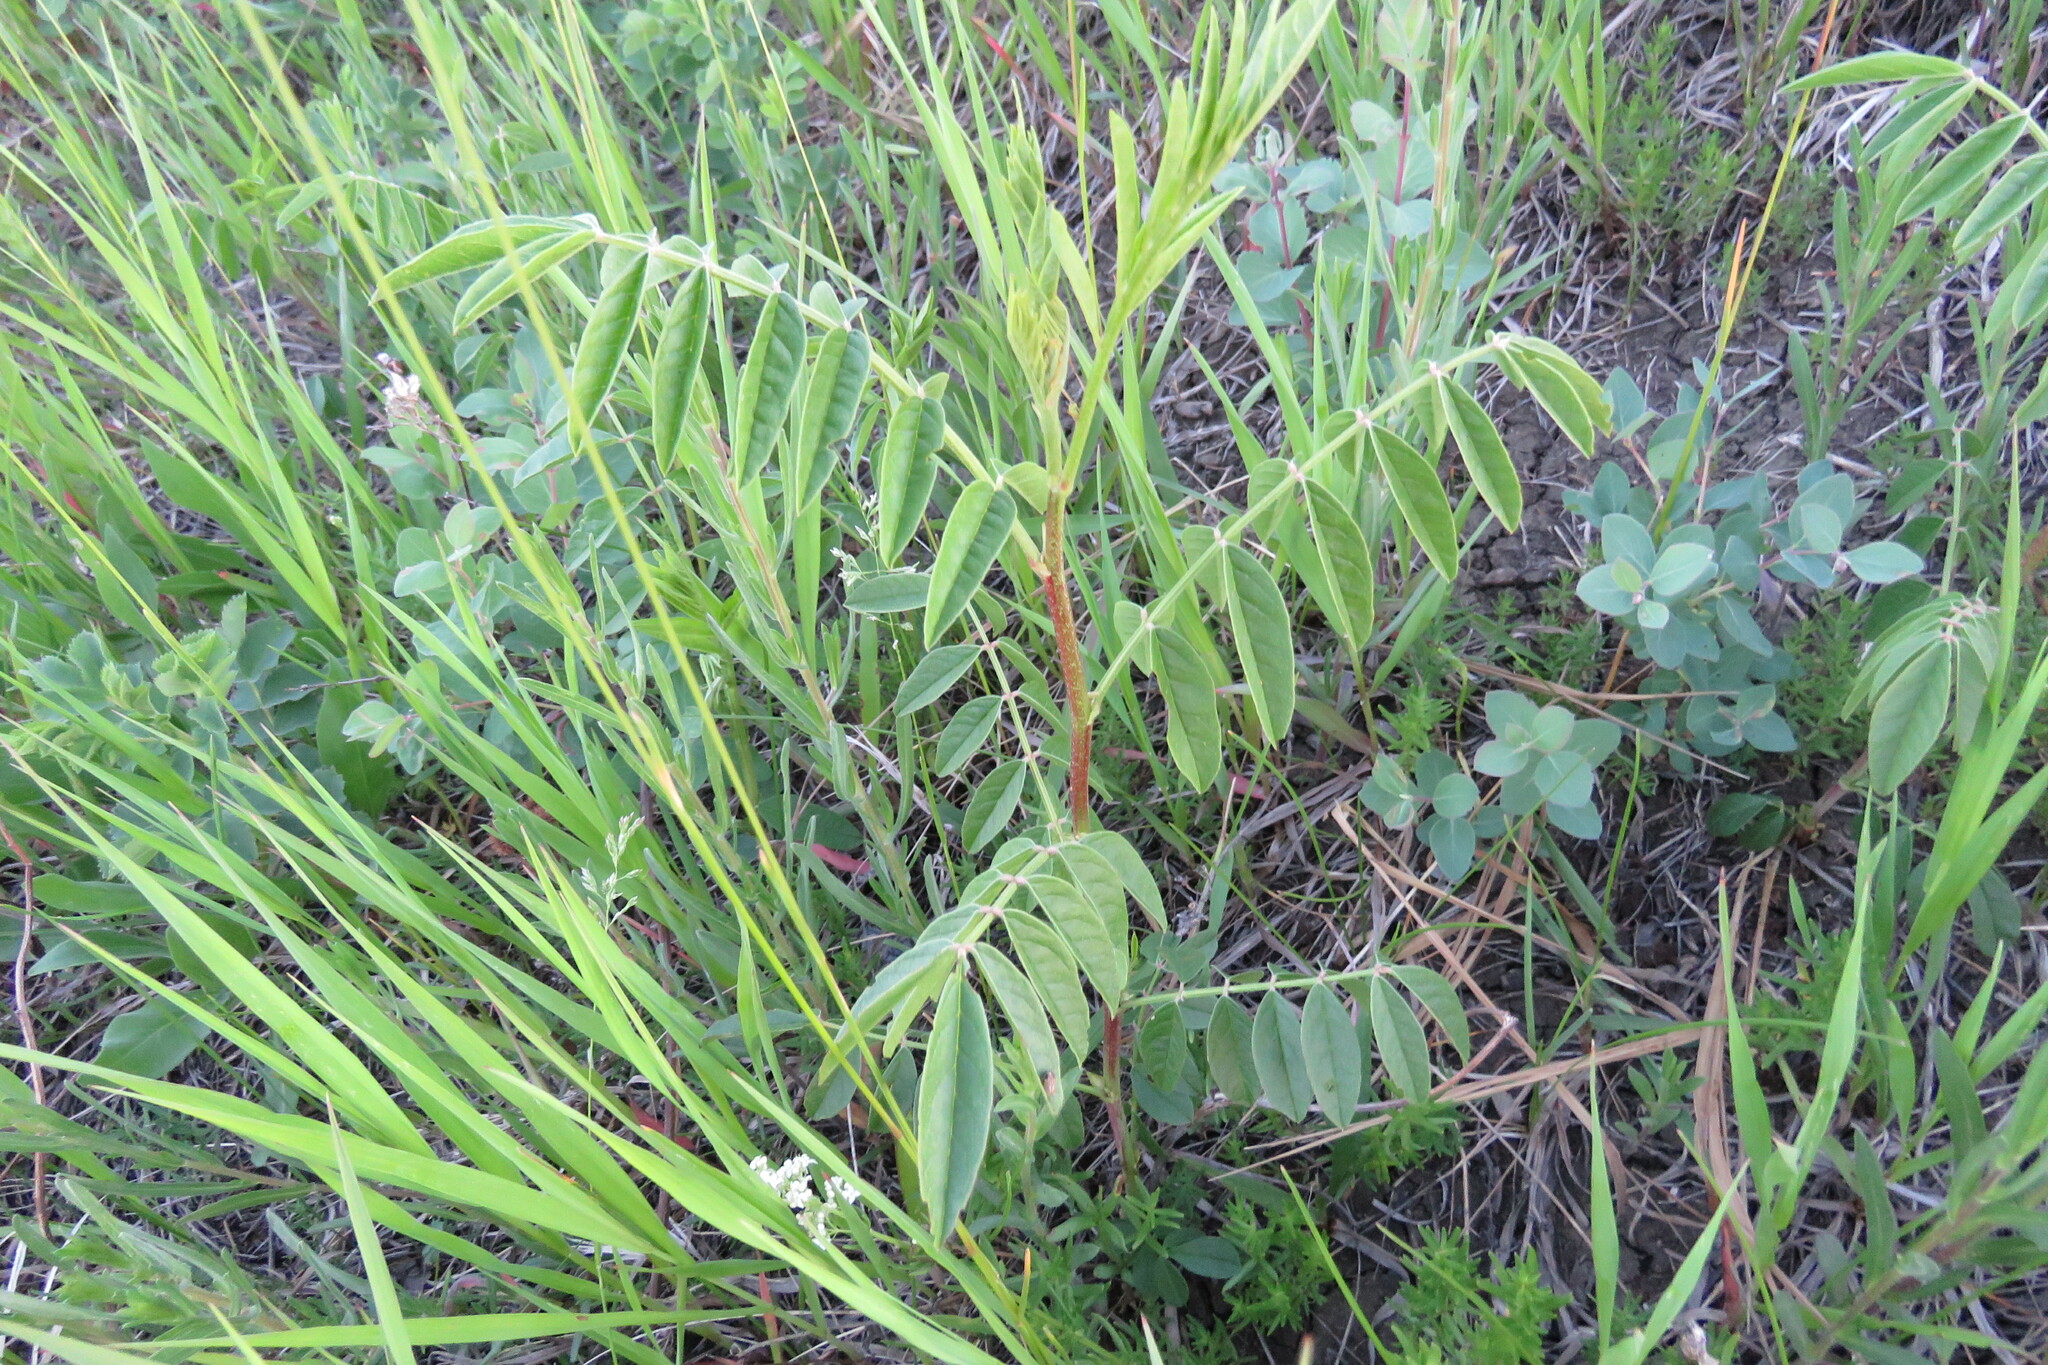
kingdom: Plantae
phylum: Tracheophyta
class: Magnoliopsida
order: Fabales
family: Fabaceae
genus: Glycyrrhiza
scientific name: Glycyrrhiza lepidota
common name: American liquorice
